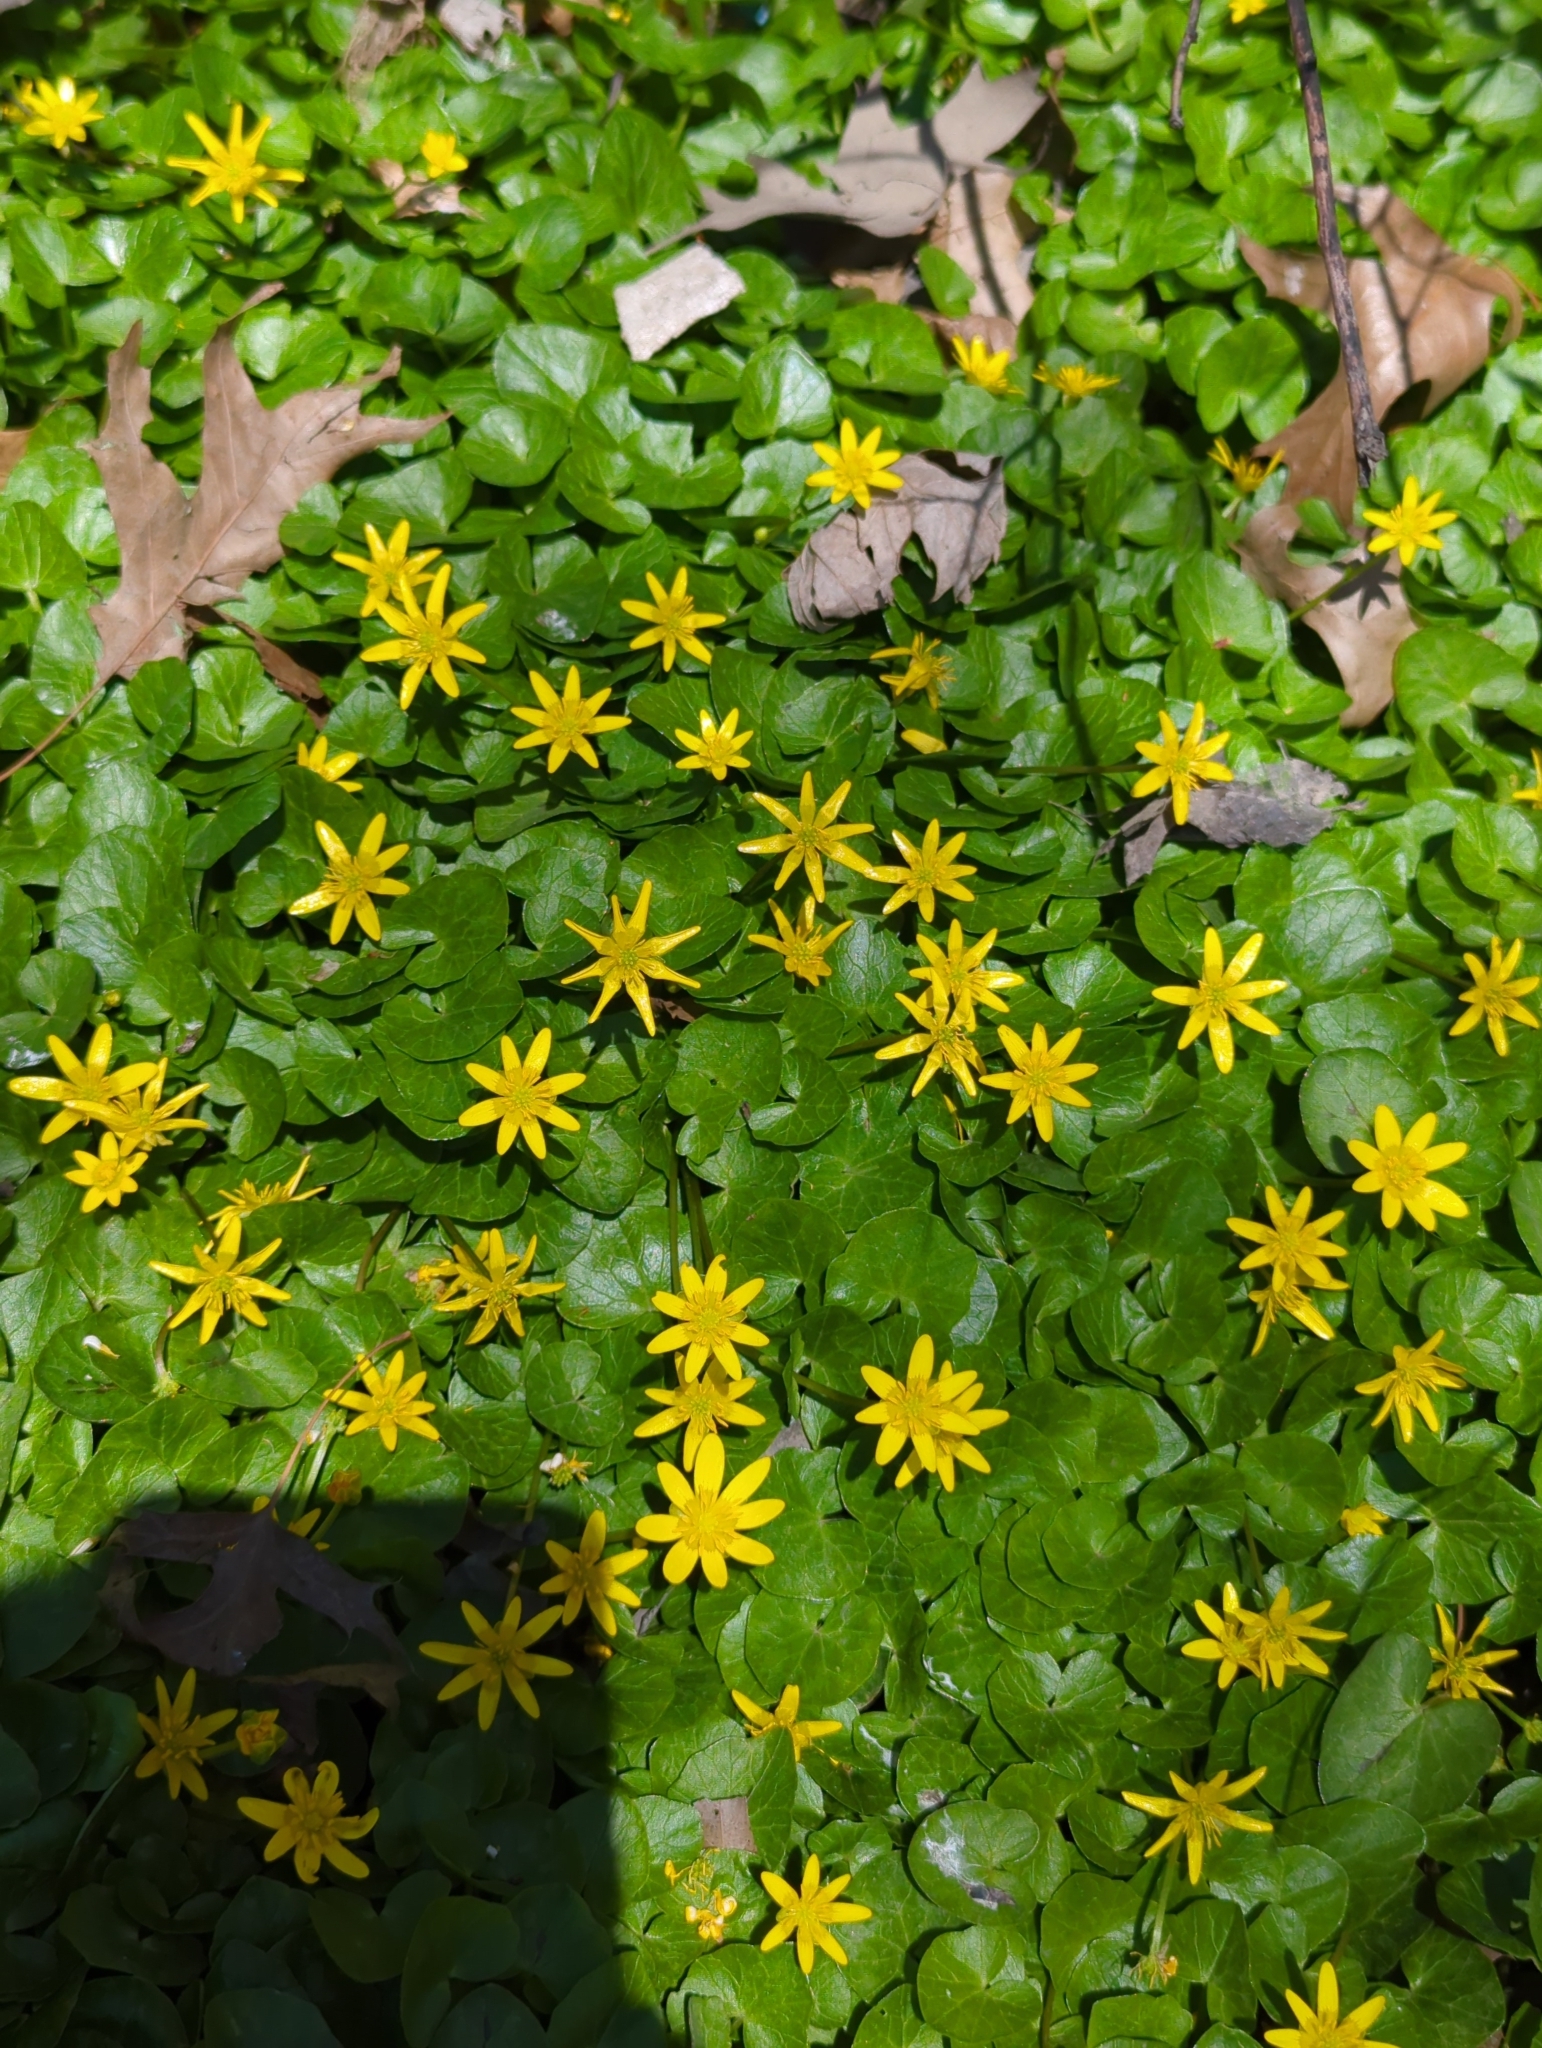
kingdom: Plantae
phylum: Tracheophyta
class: Magnoliopsida
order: Ranunculales
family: Ranunculaceae
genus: Ficaria
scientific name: Ficaria verna
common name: Lesser celandine
